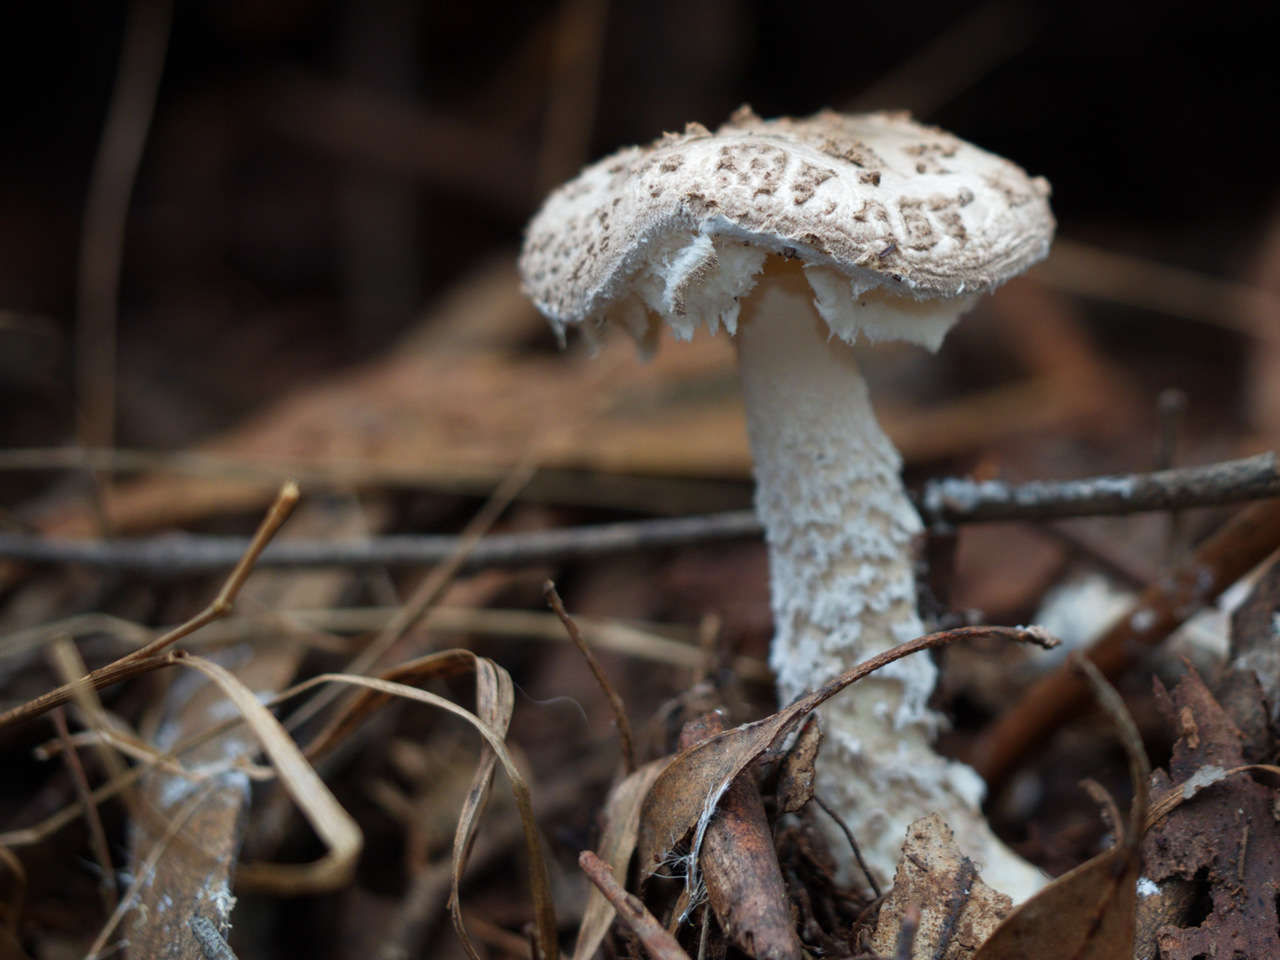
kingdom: Fungi
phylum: Basidiomycota
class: Agaricomycetes
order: Agaricales
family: Amanitaceae
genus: Amanita
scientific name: Amanita farinacea
